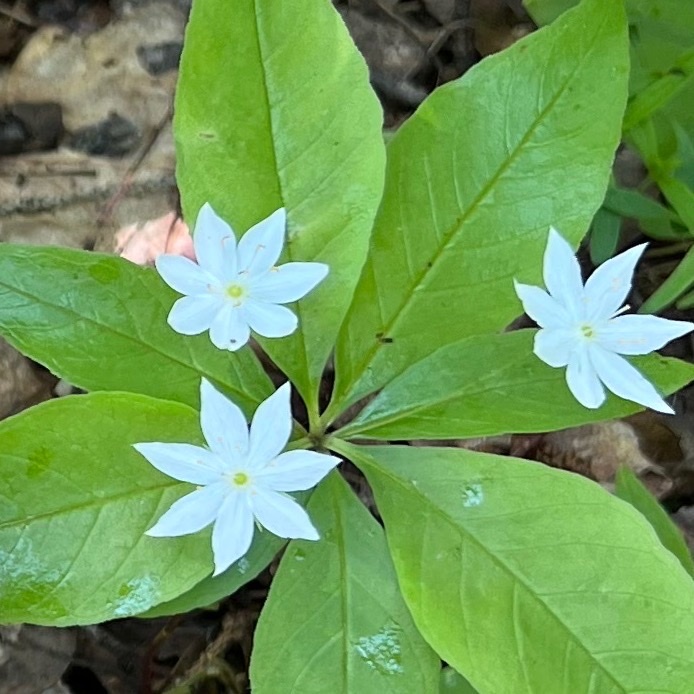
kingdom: Plantae
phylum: Tracheophyta
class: Magnoliopsida
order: Ericales
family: Primulaceae
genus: Lysimachia
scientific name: Lysimachia borealis
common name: American starflower
